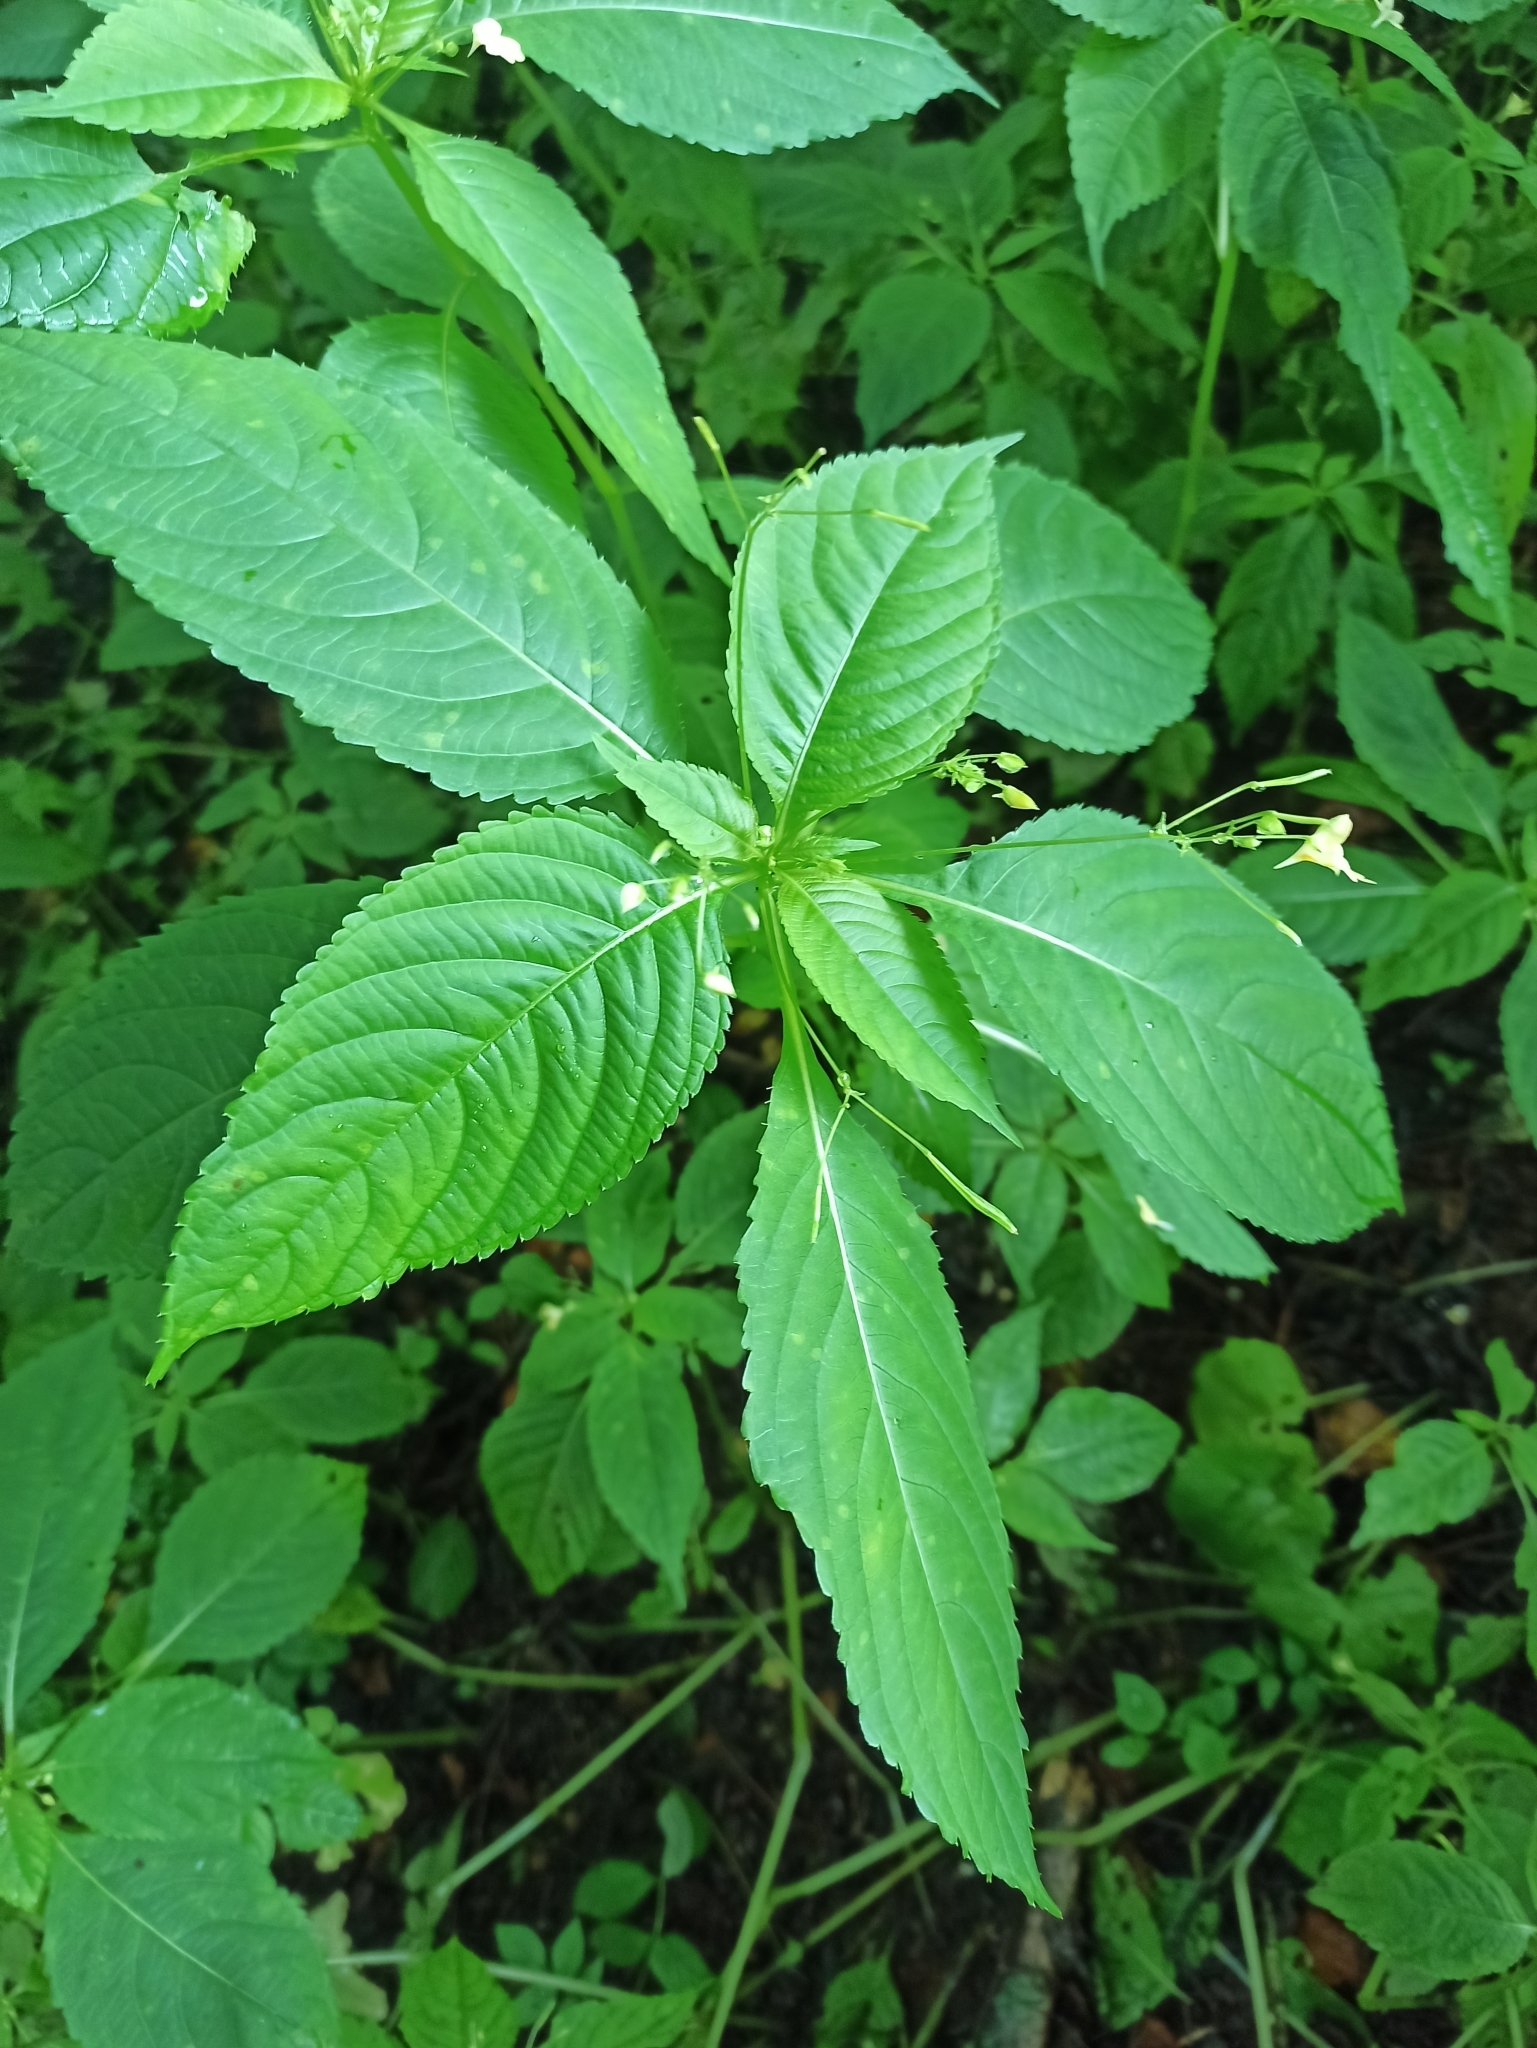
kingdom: Plantae
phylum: Tracheophyta
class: Magnoliopsida
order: Ericales
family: Balsaminaceae
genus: Impatiens
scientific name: Impatiens parviflora
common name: Small balsam
